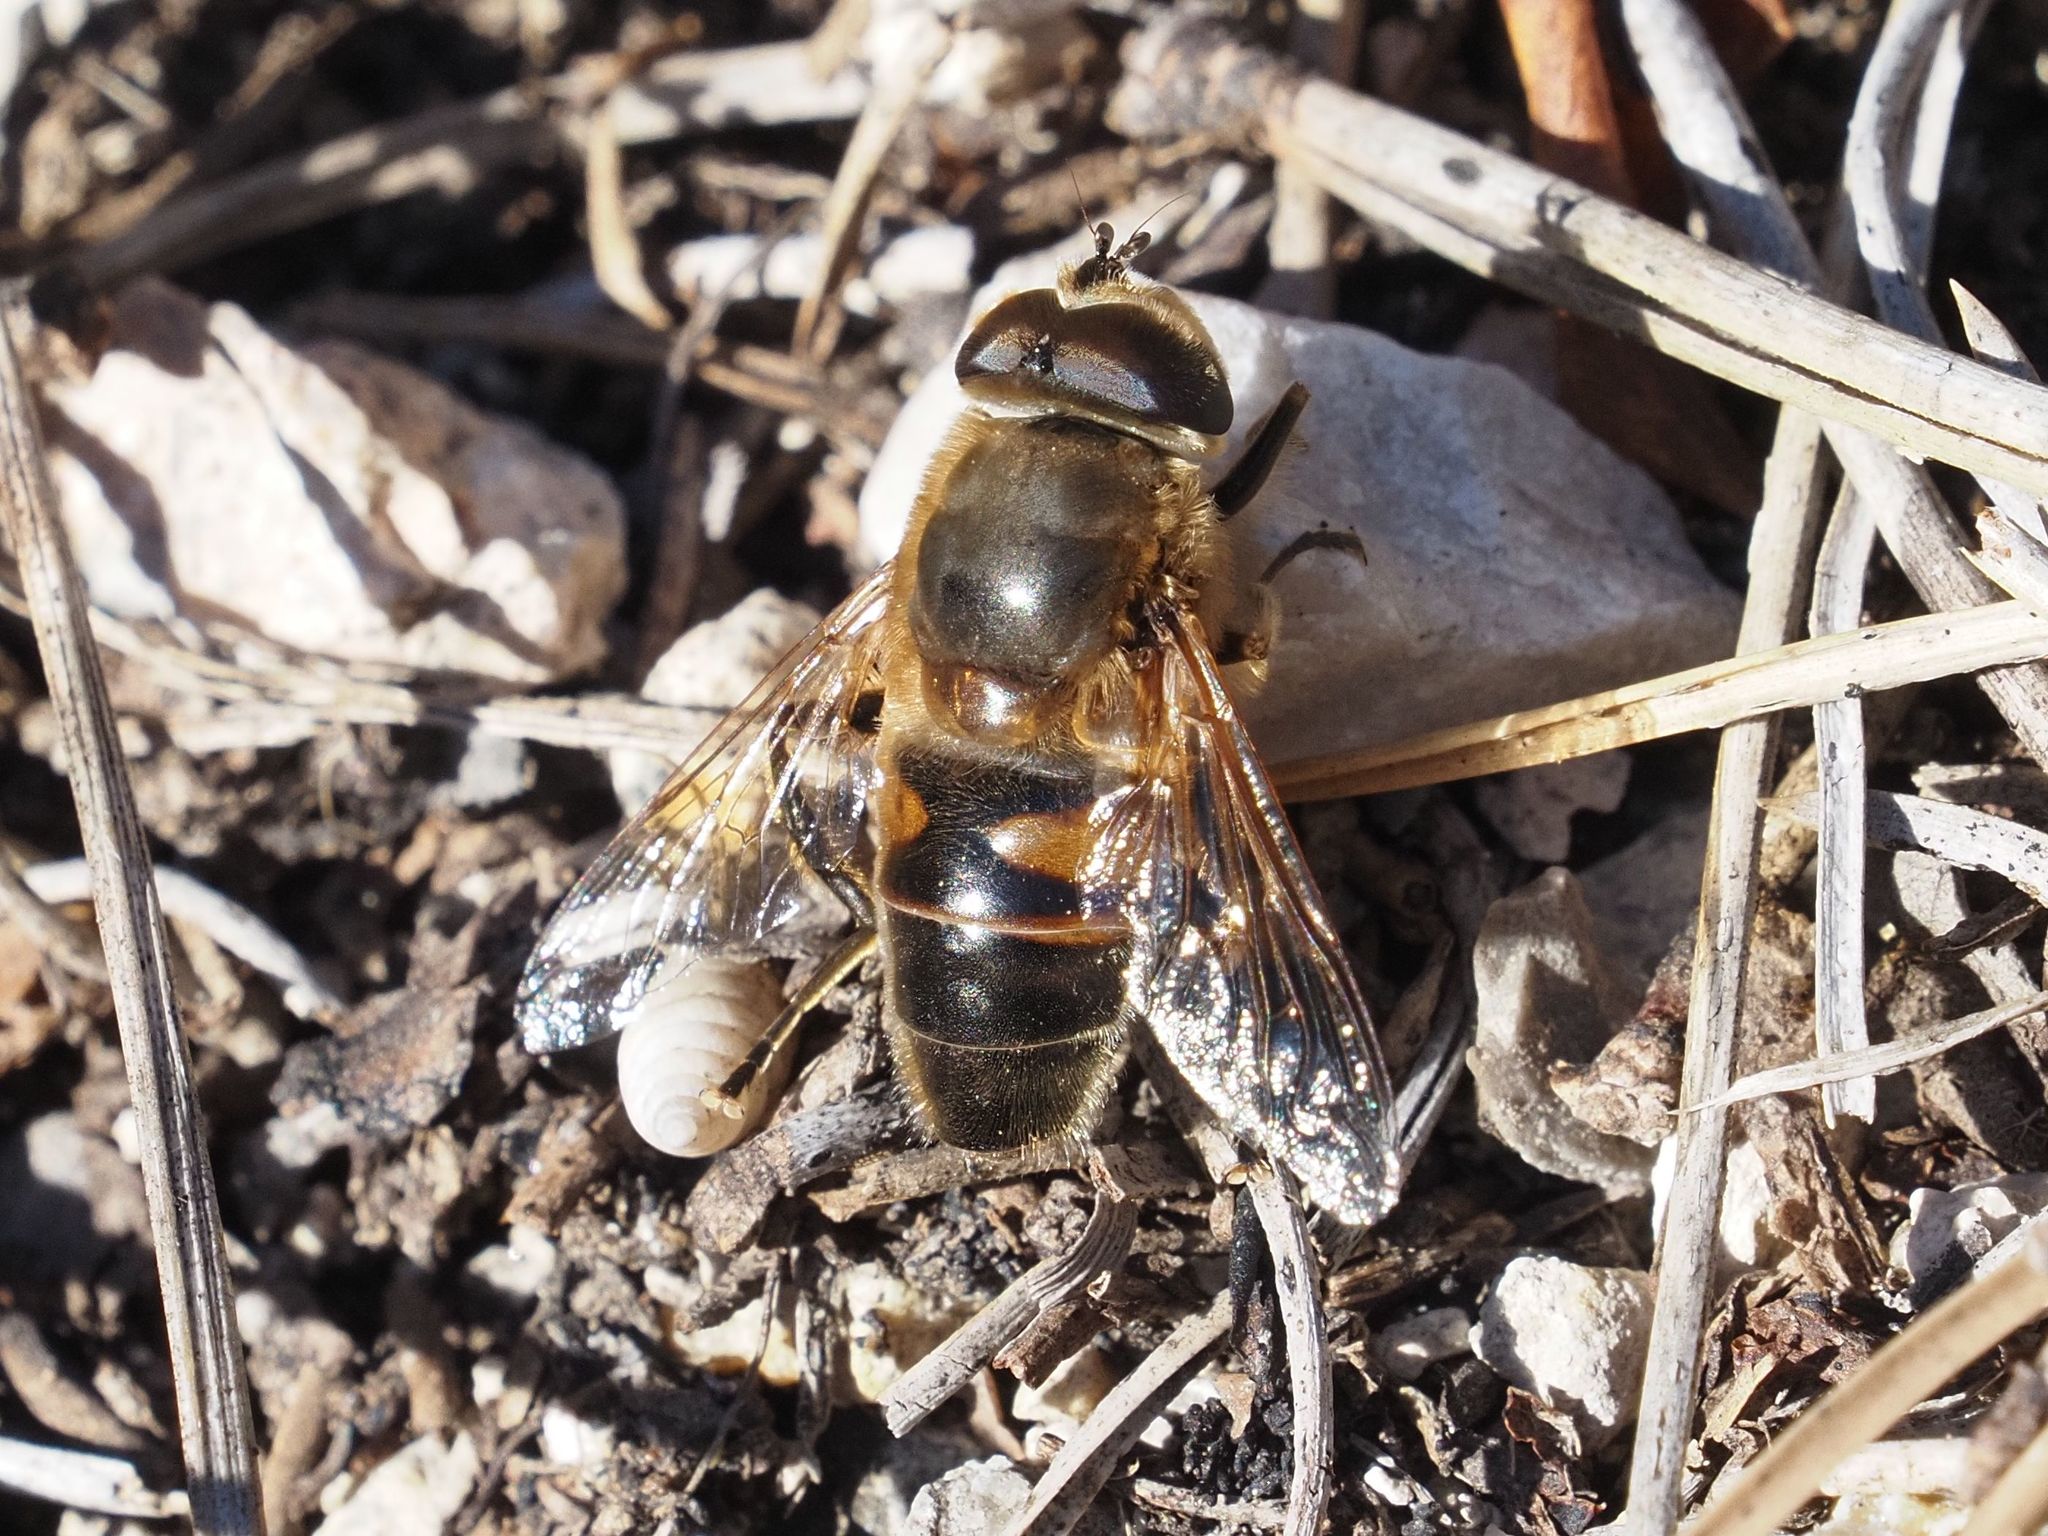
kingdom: Animalia
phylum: Arthropoda
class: Insecta
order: Diptera
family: Syrphidae
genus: Eristalis
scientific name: Eristalis tenax
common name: Drone fly
